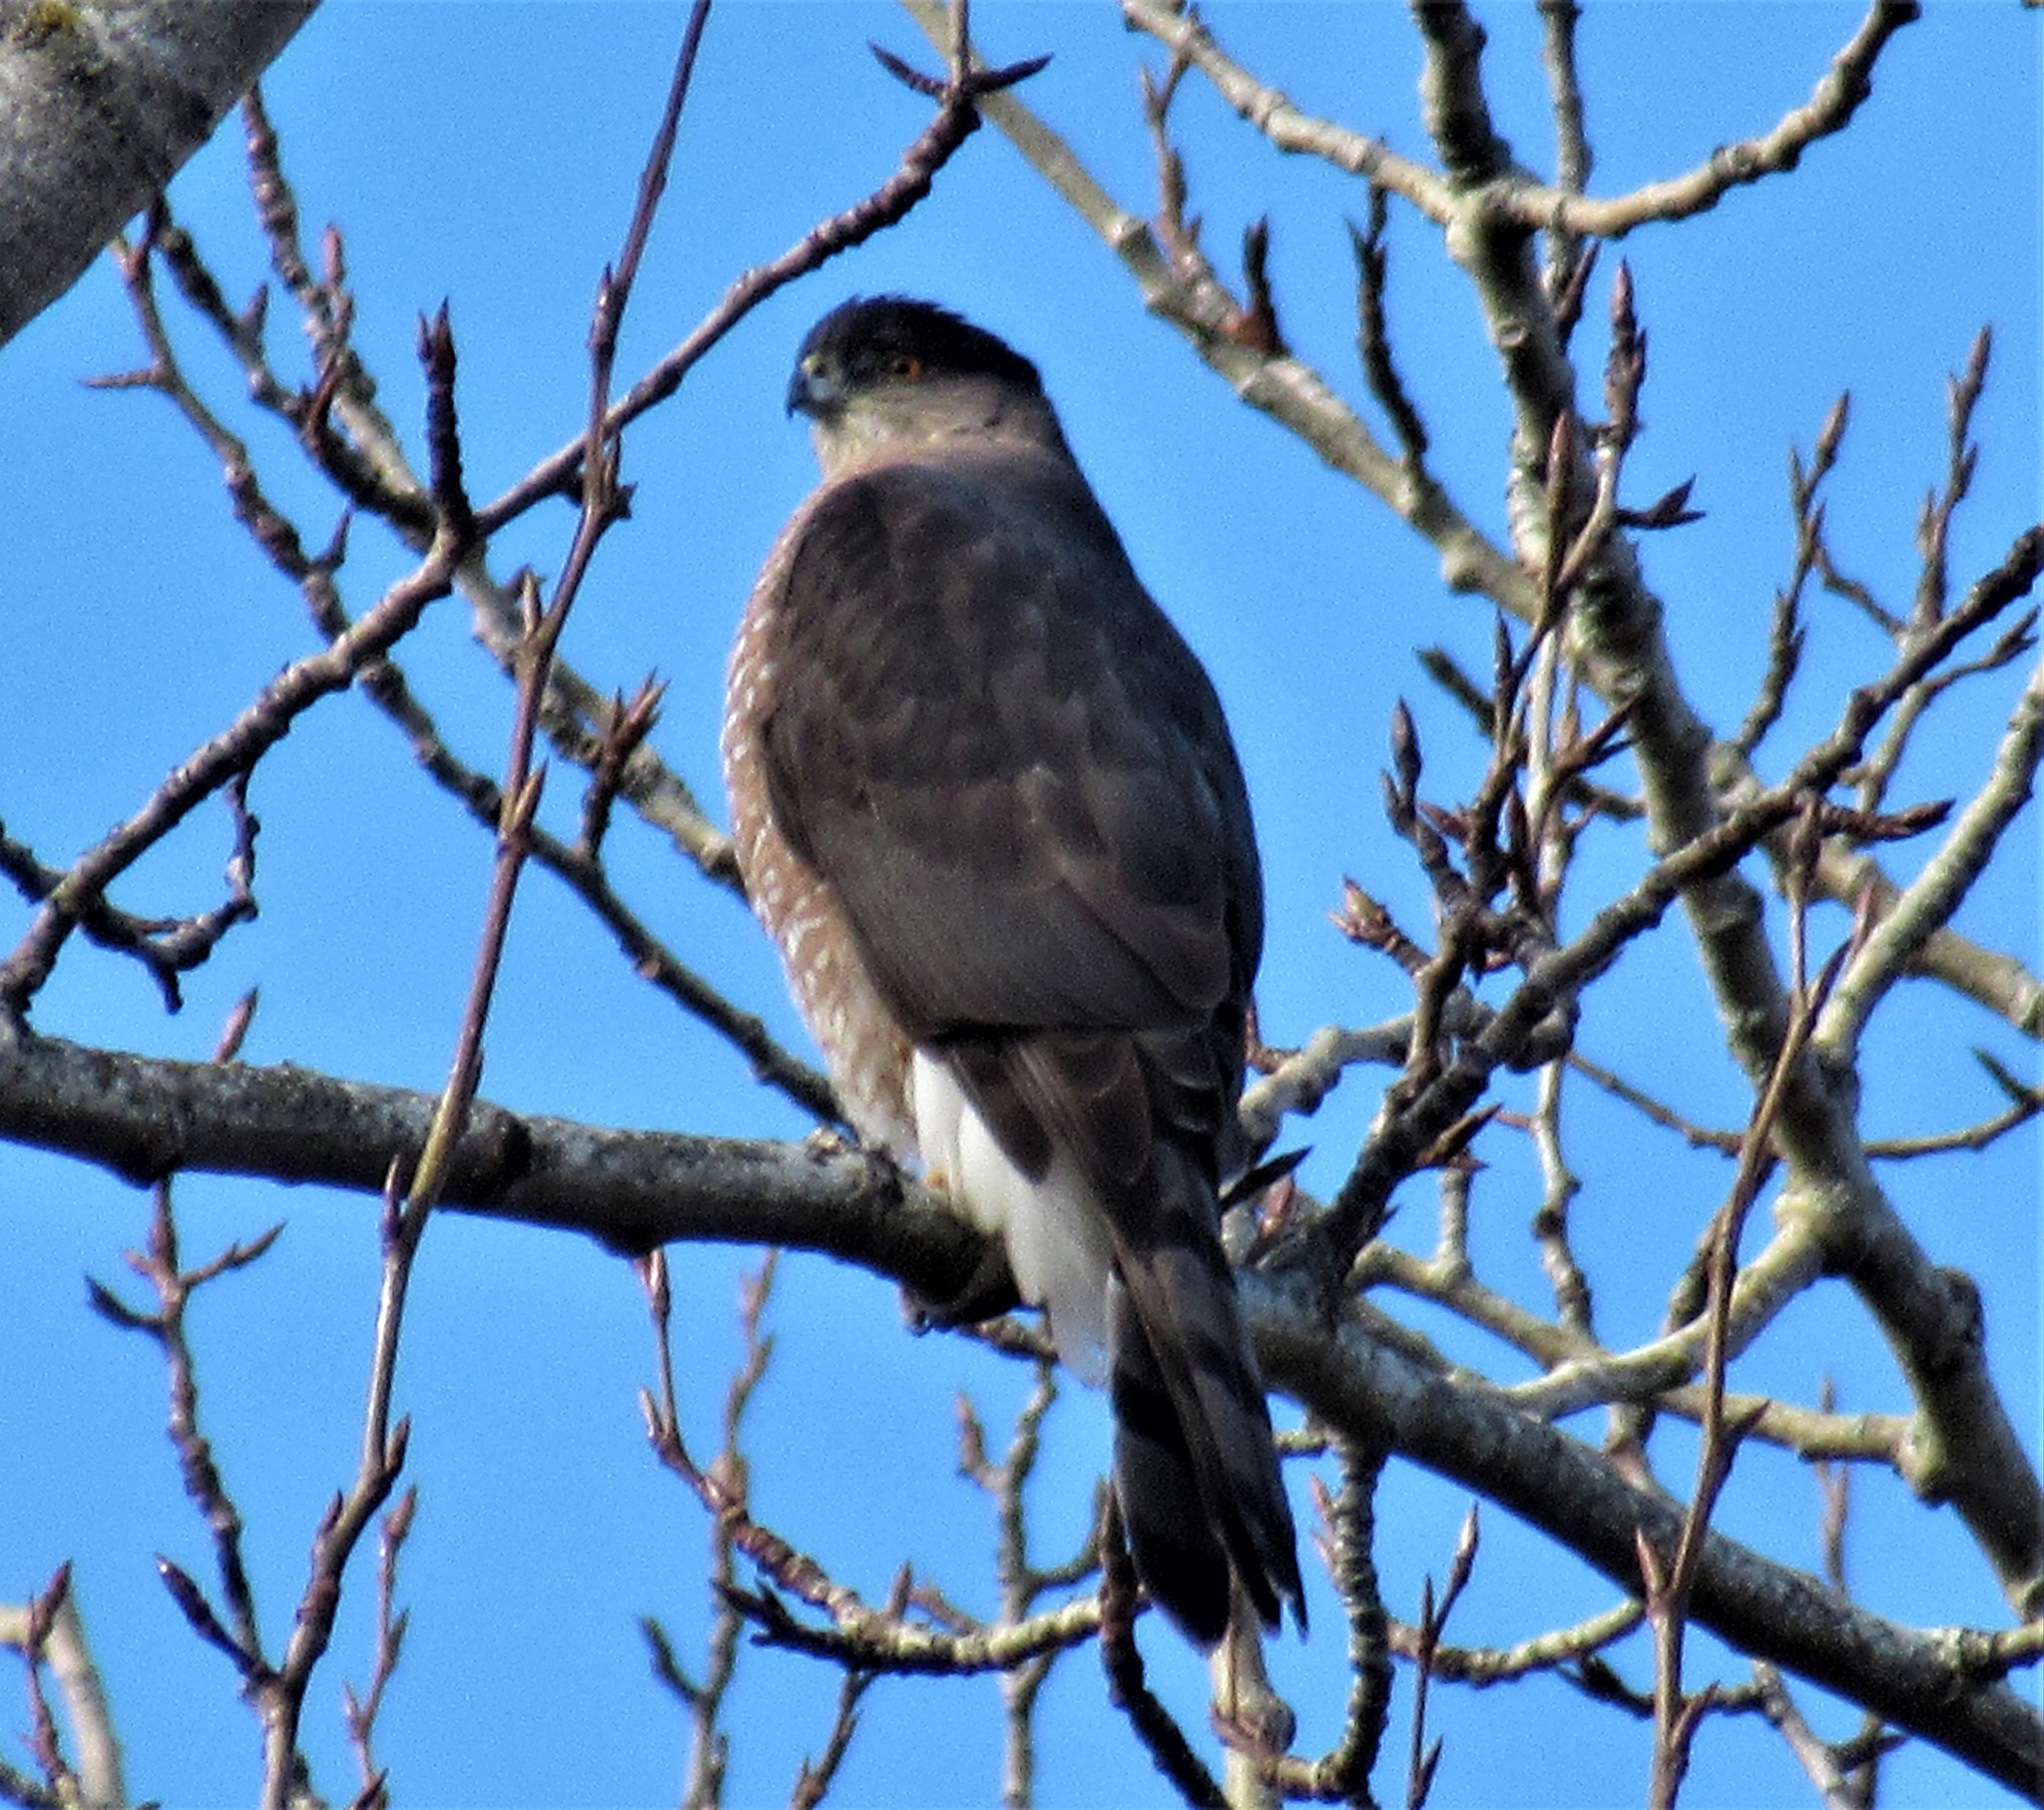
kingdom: Animalia
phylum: Chordata
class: Aves
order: Accipitriformes
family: Accipitridae
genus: Accipiter
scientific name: Accipiter cooperii
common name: Cooper's hawk
